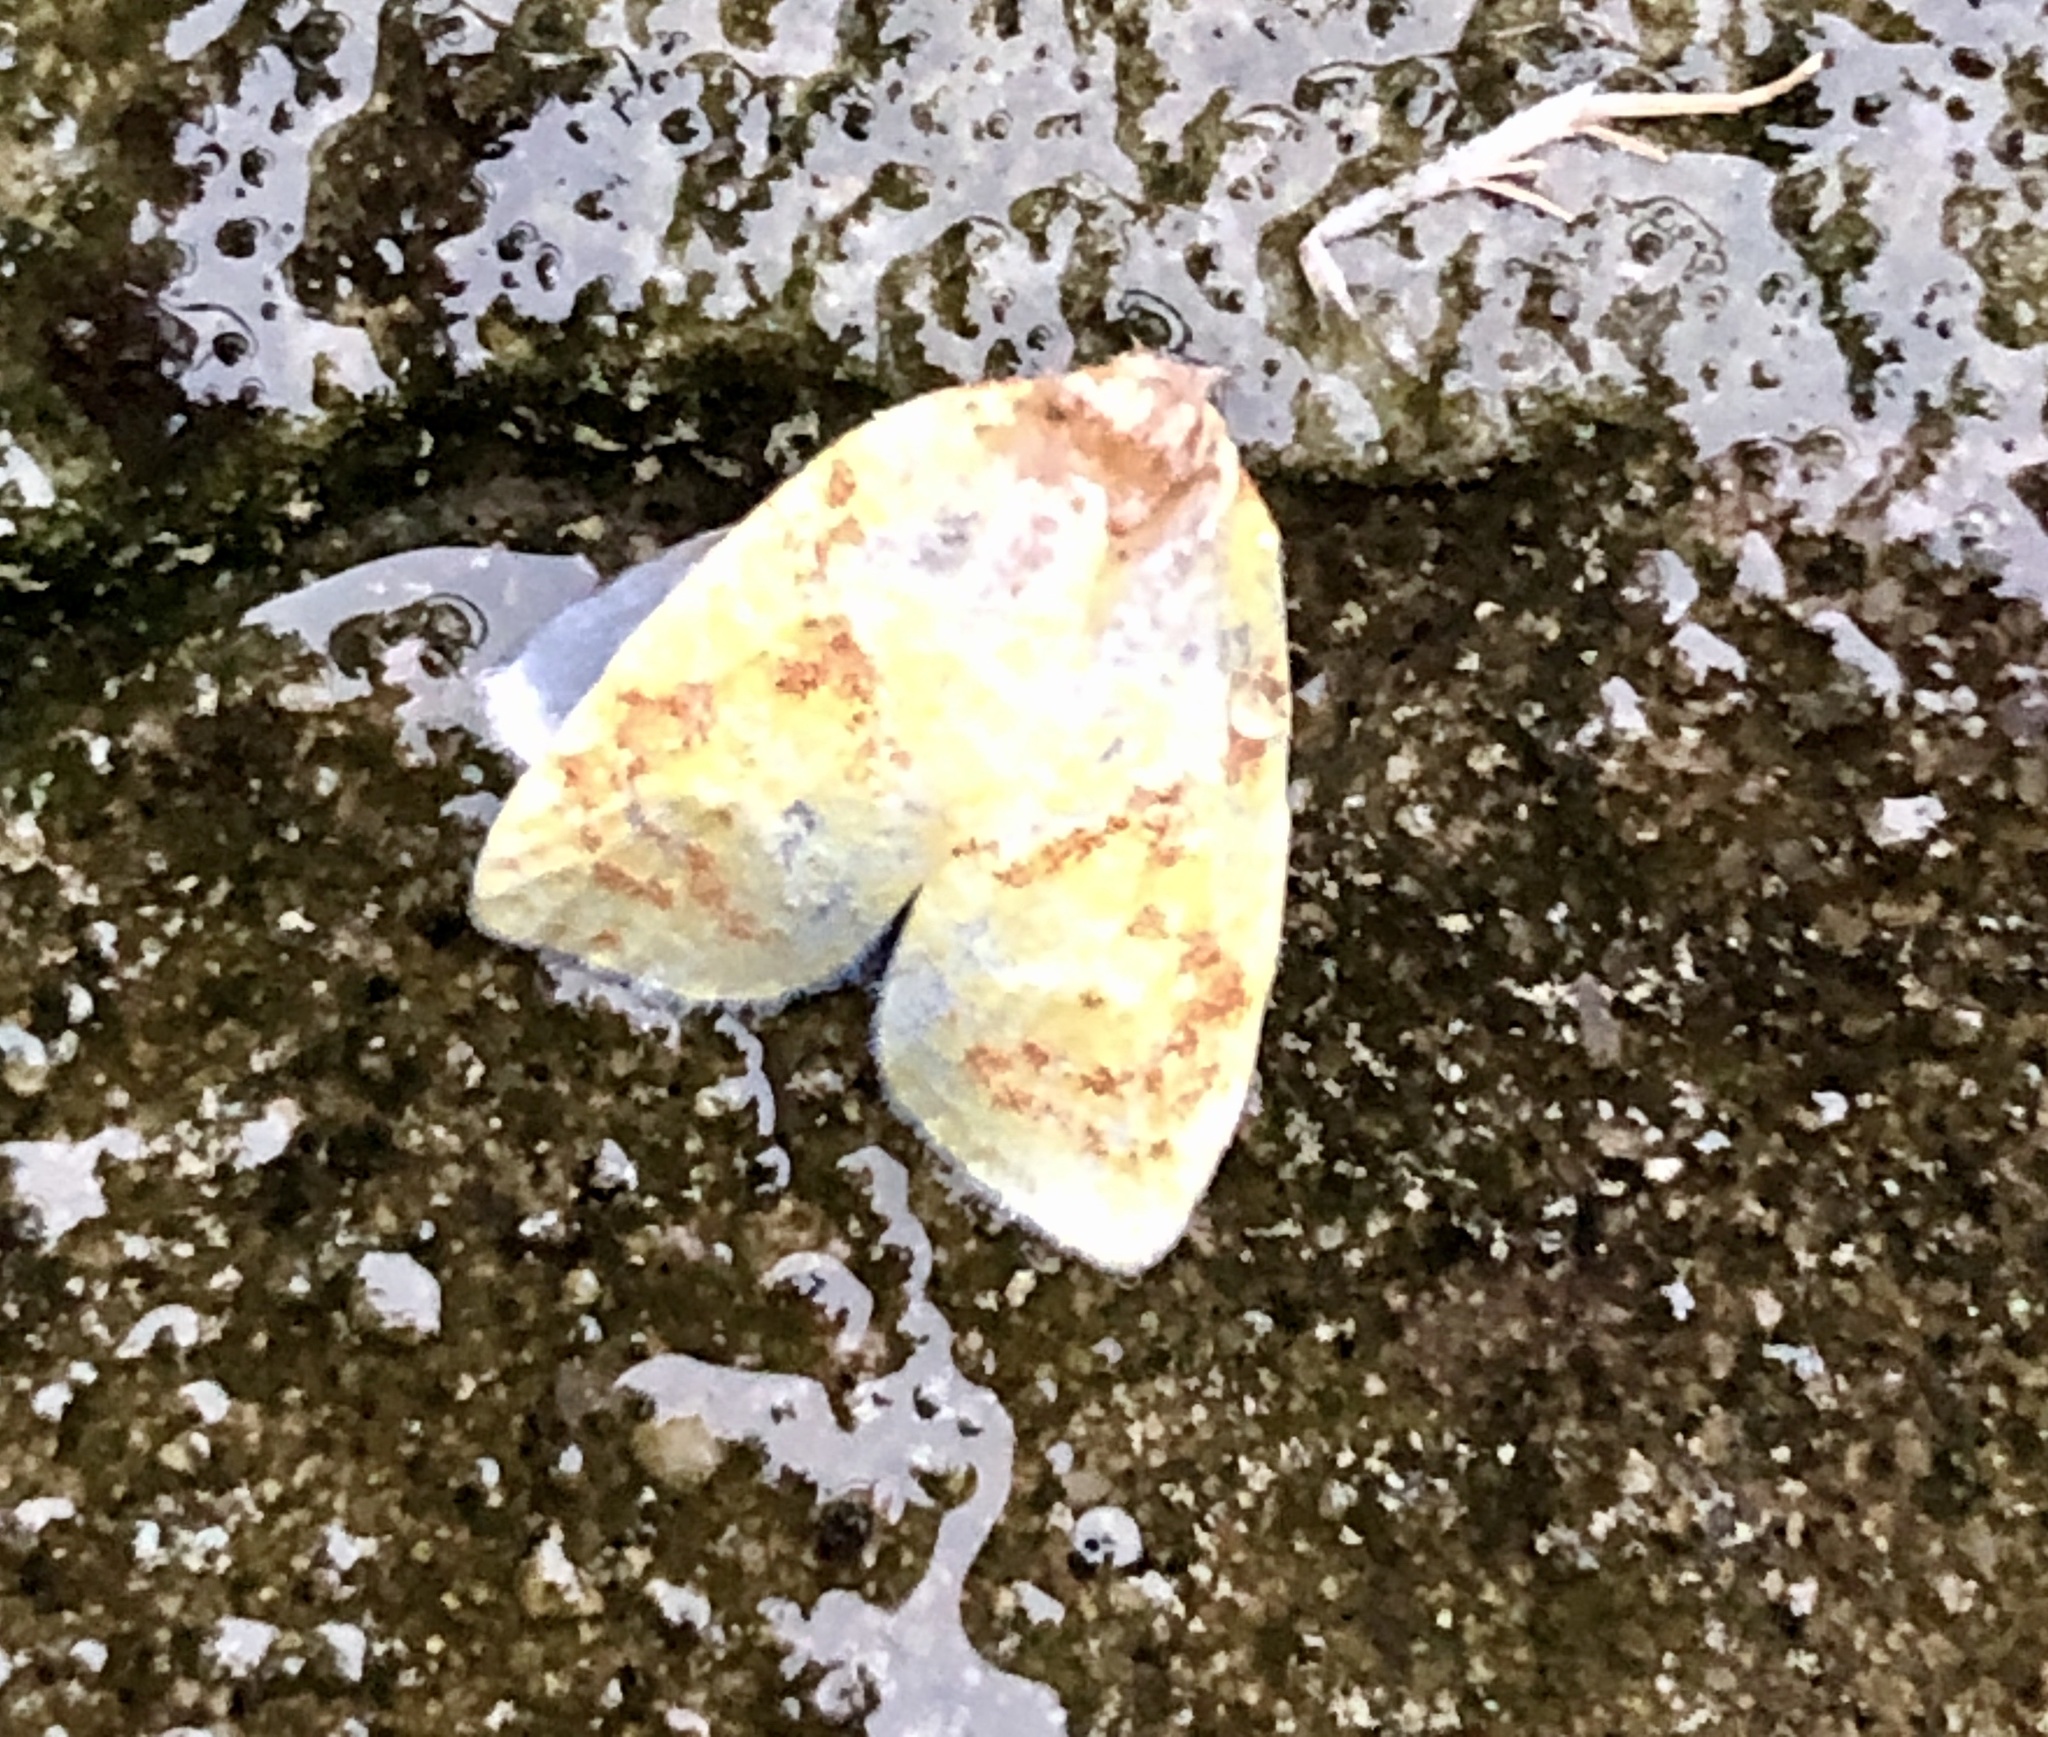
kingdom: Animalia
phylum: Arthropoda
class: Insecta
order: Lepidoptera
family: Tortricidae
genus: Cenopis
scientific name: Cenopis pettitana
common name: Maple-basswood leafroller moth
